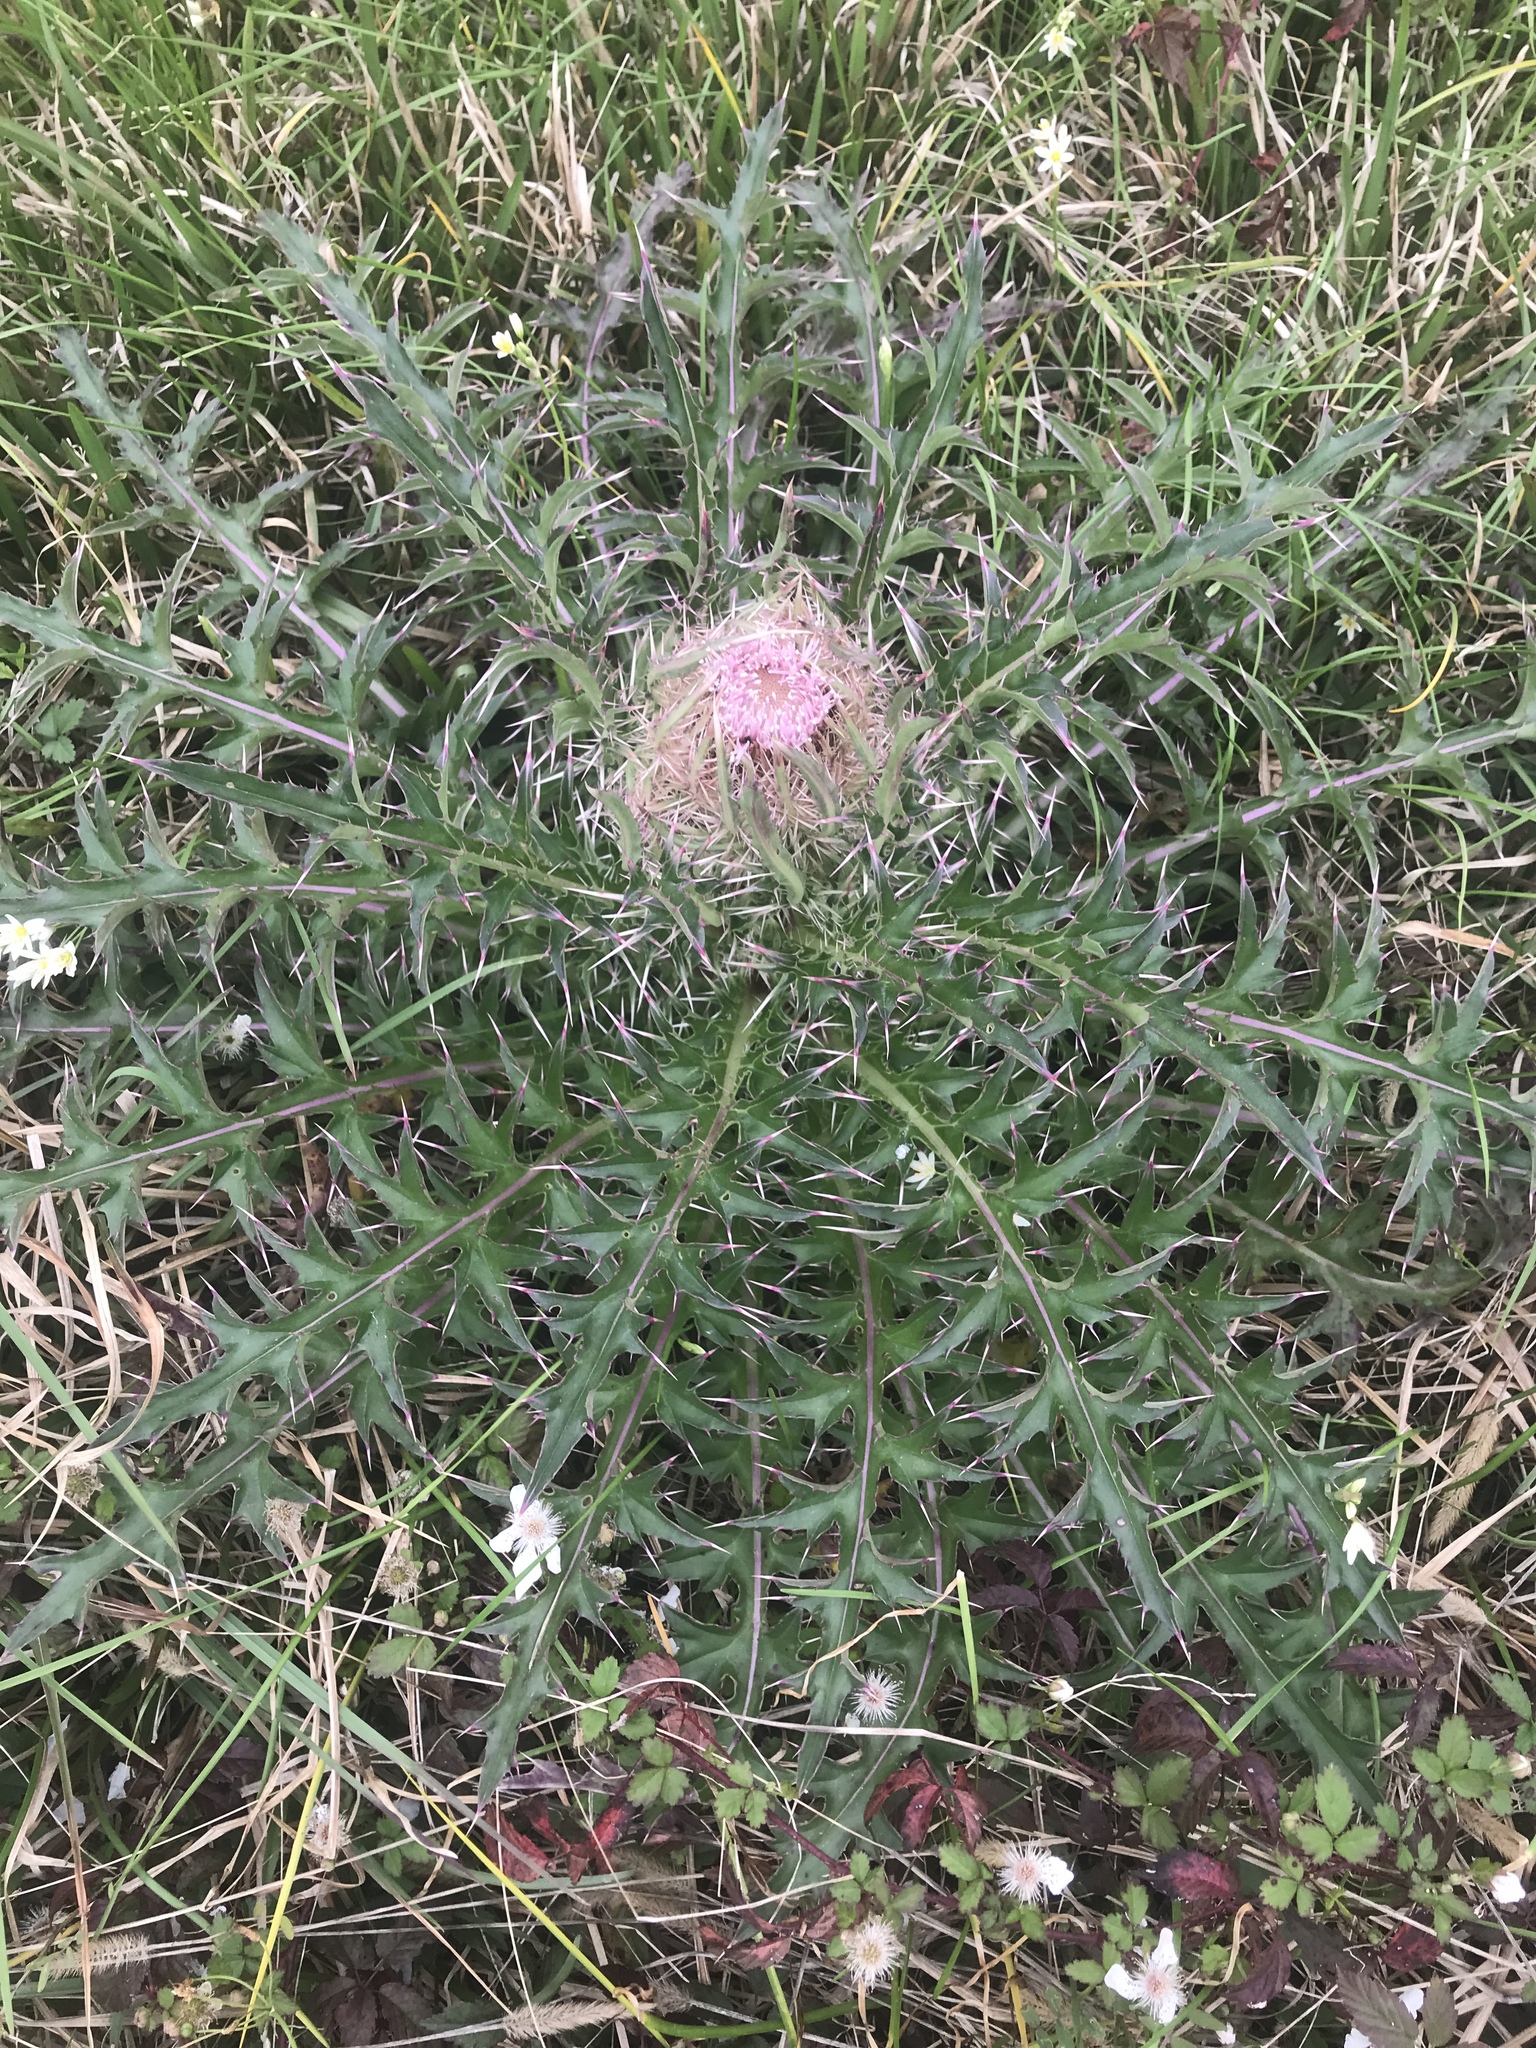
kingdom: Plantae
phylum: Tracheophyta
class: Magnoliopsida
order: Asterales
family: Asteraceae
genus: Cirsium
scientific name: Cirsium horridulum
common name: Bristly thistle
